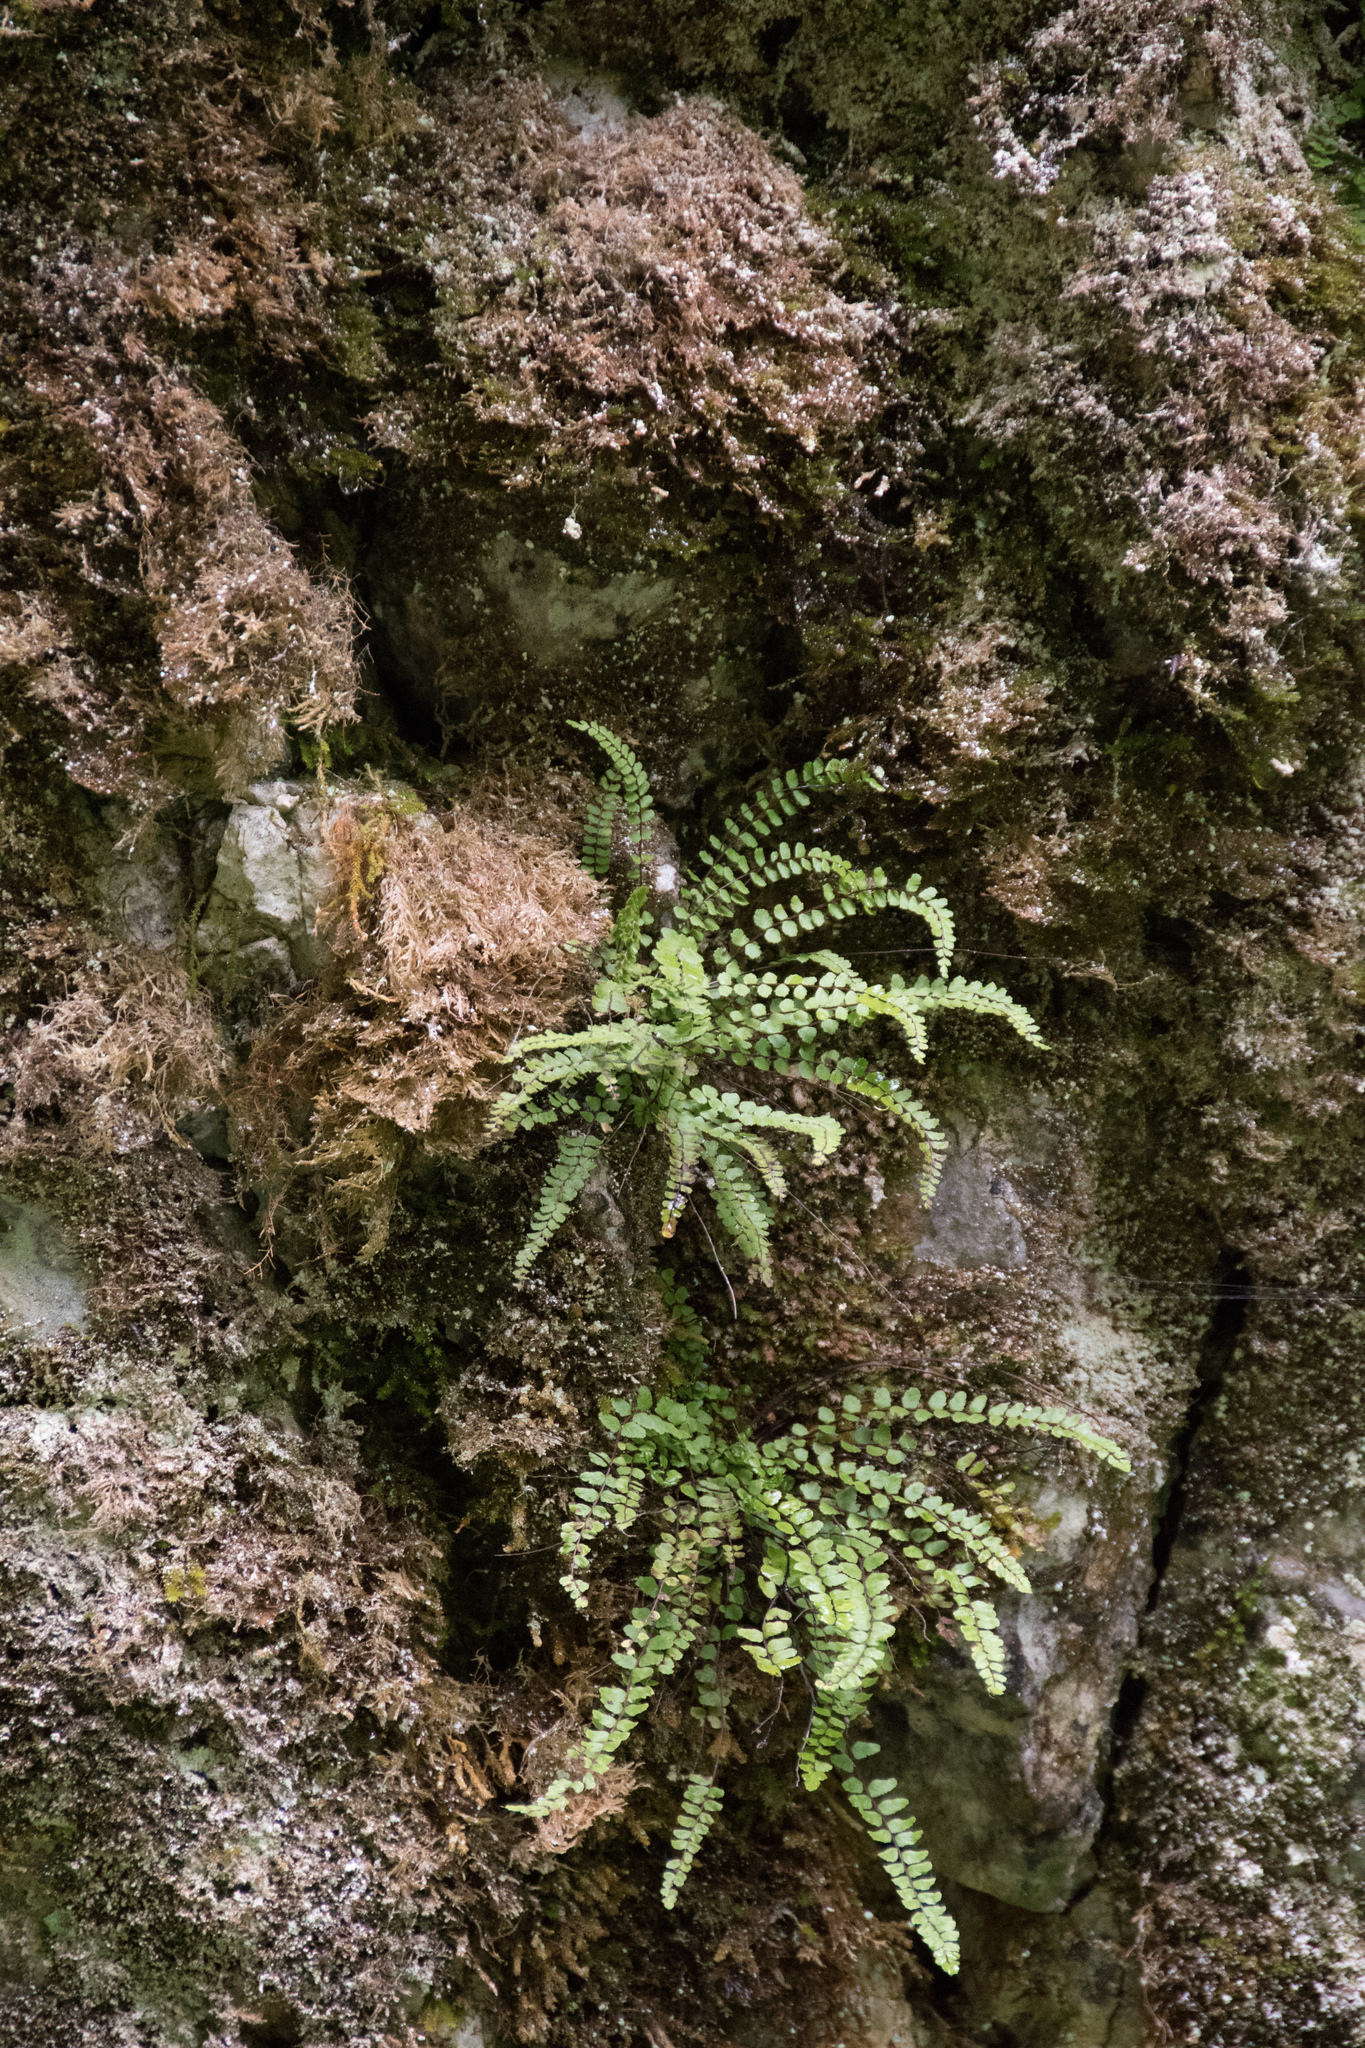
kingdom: Plantae
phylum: Tracheophyta
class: Polypodiopsida
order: Polypodiales
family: Aspleniaceae
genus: Asplenium
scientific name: Asplenium trichomanes
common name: Maidenhair spleenwort
